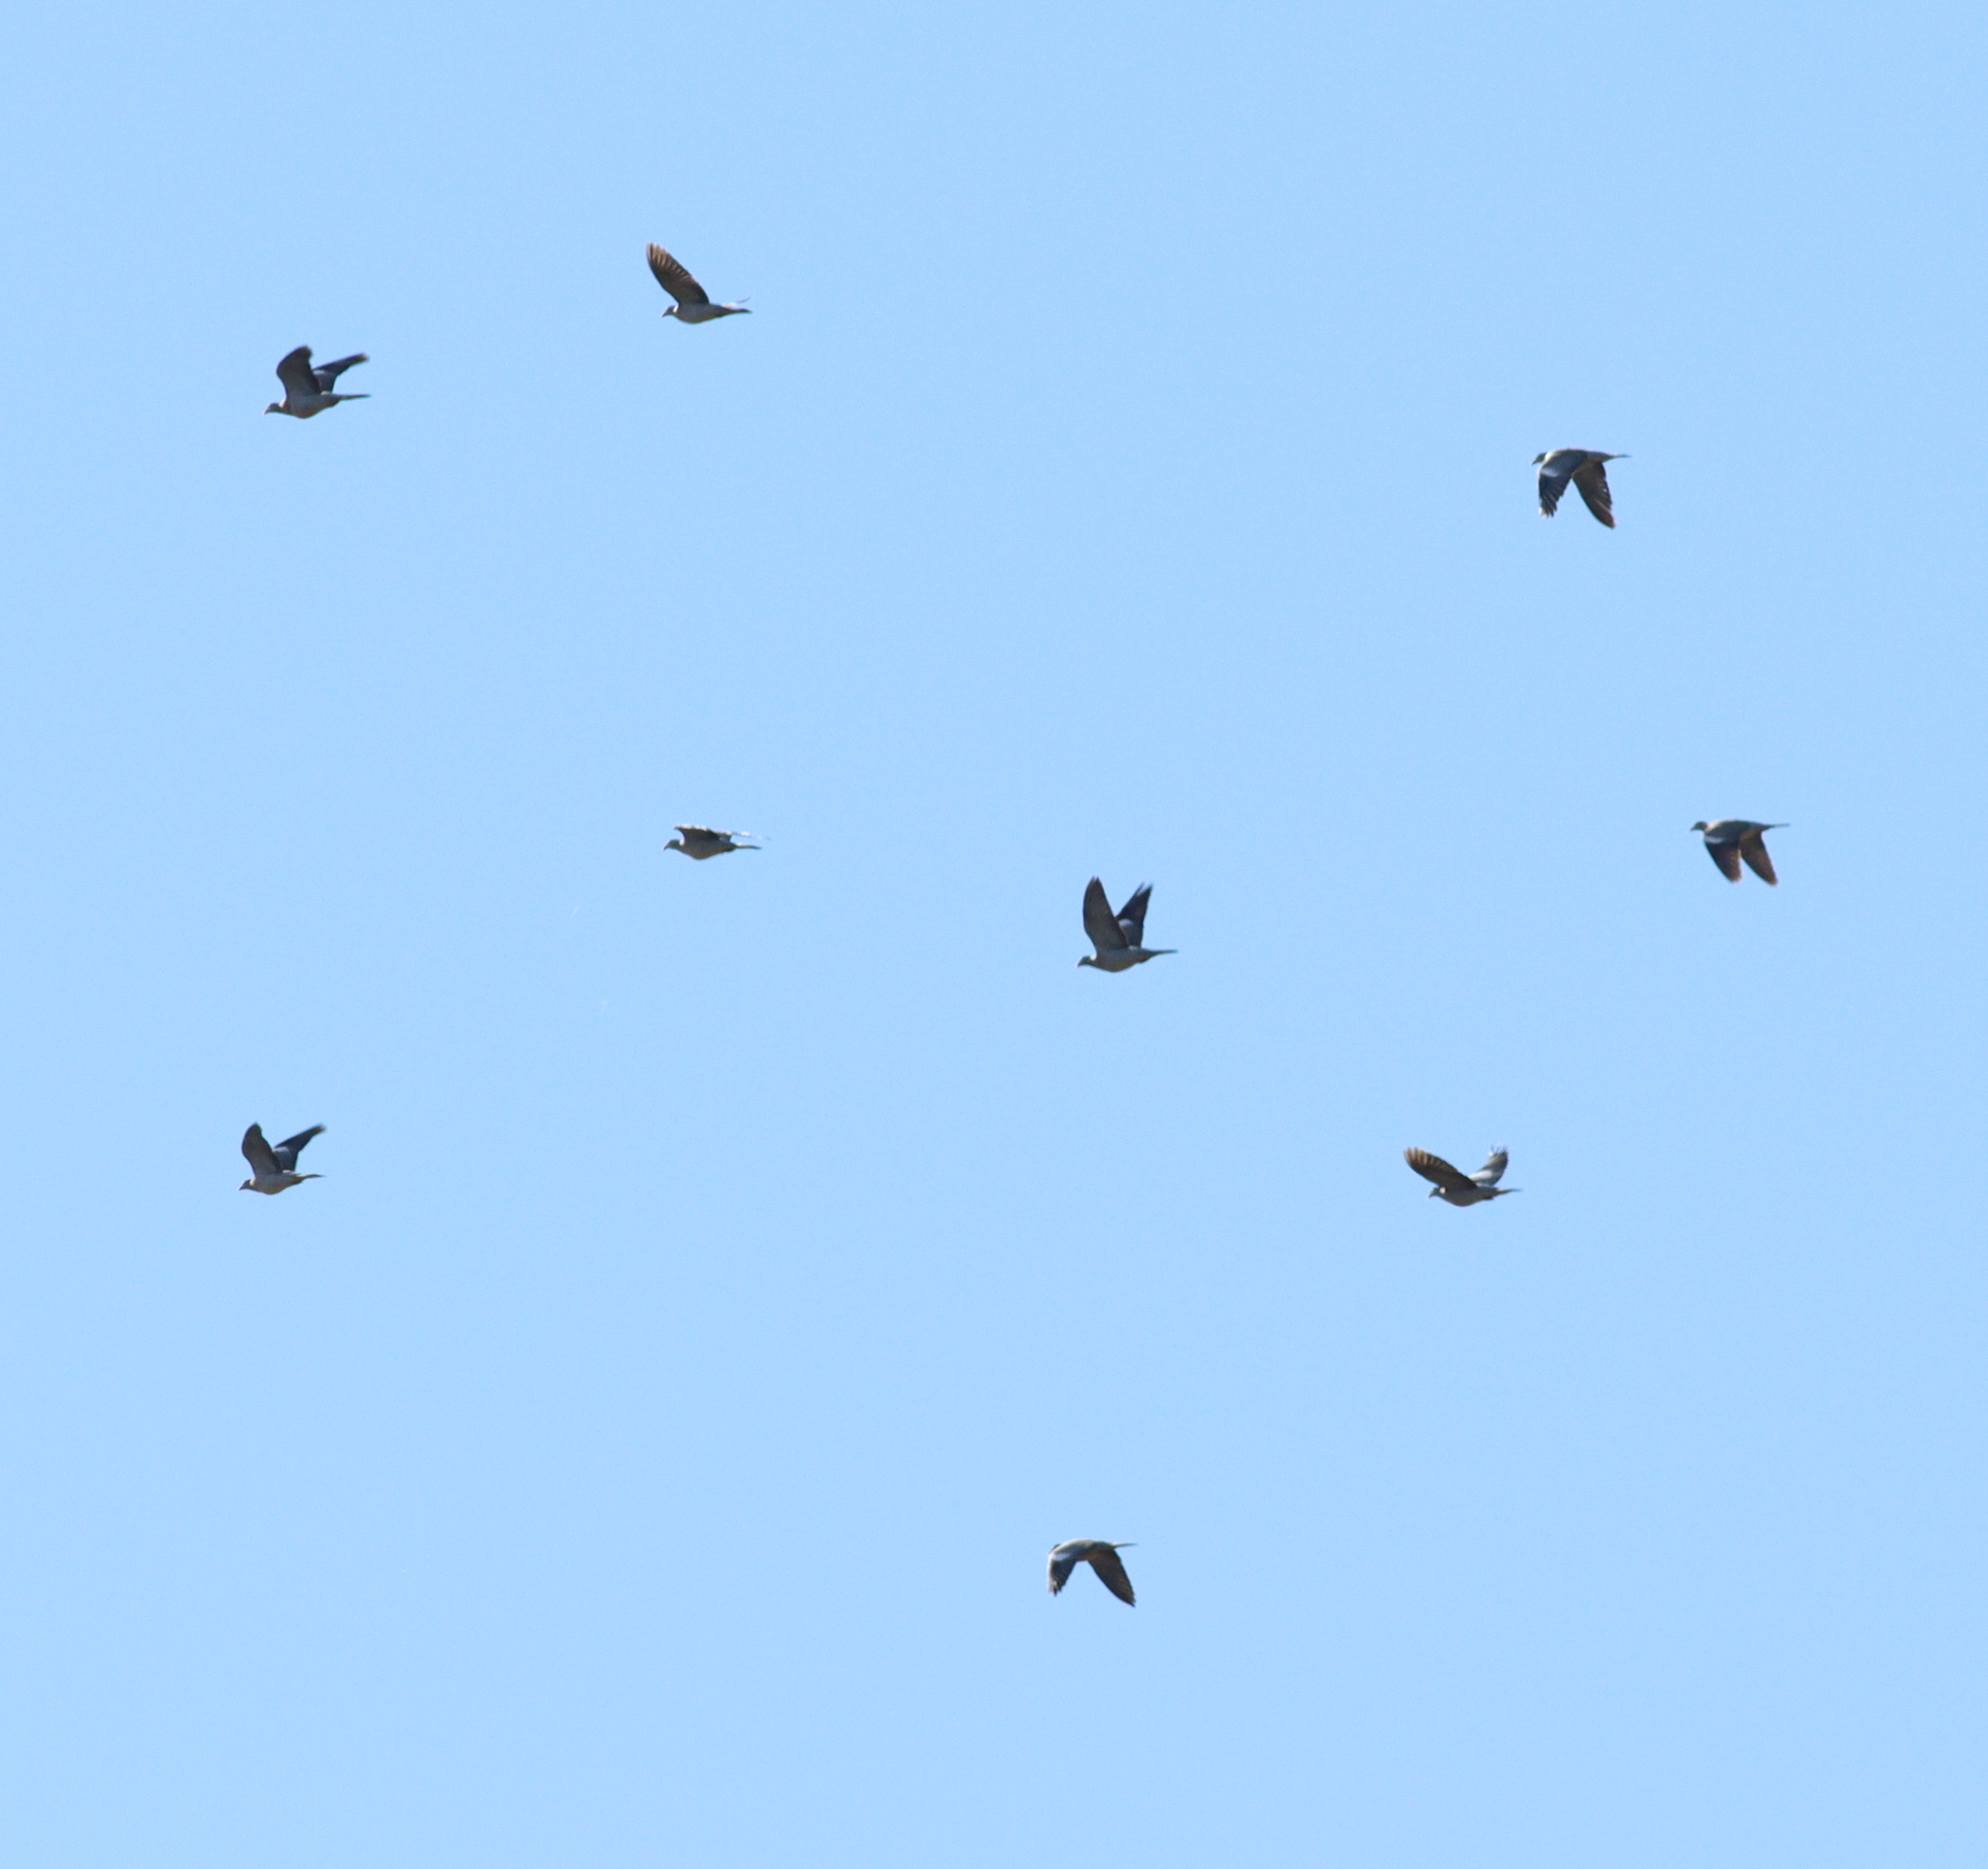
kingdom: Animalia
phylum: Chordata
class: Aves
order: Columbiformes
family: Columbidae
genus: Columba
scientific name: Columba palumbus
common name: Common wood pigeon
